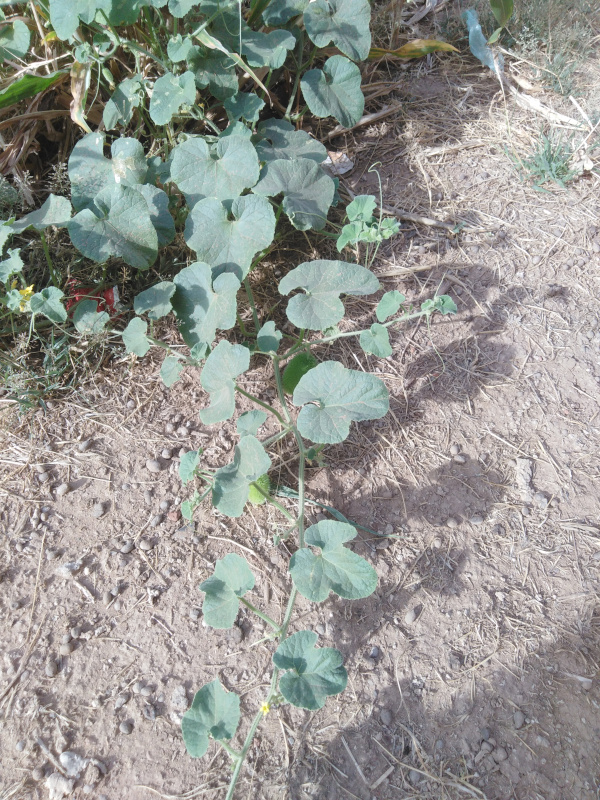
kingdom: Plantae
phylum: Tracheophyta
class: Magnoliopsida
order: Cucurbitales
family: Cucurbitaceae
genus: Cucumis
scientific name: Cucumis dipsaceus
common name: Hedgehog gourd
